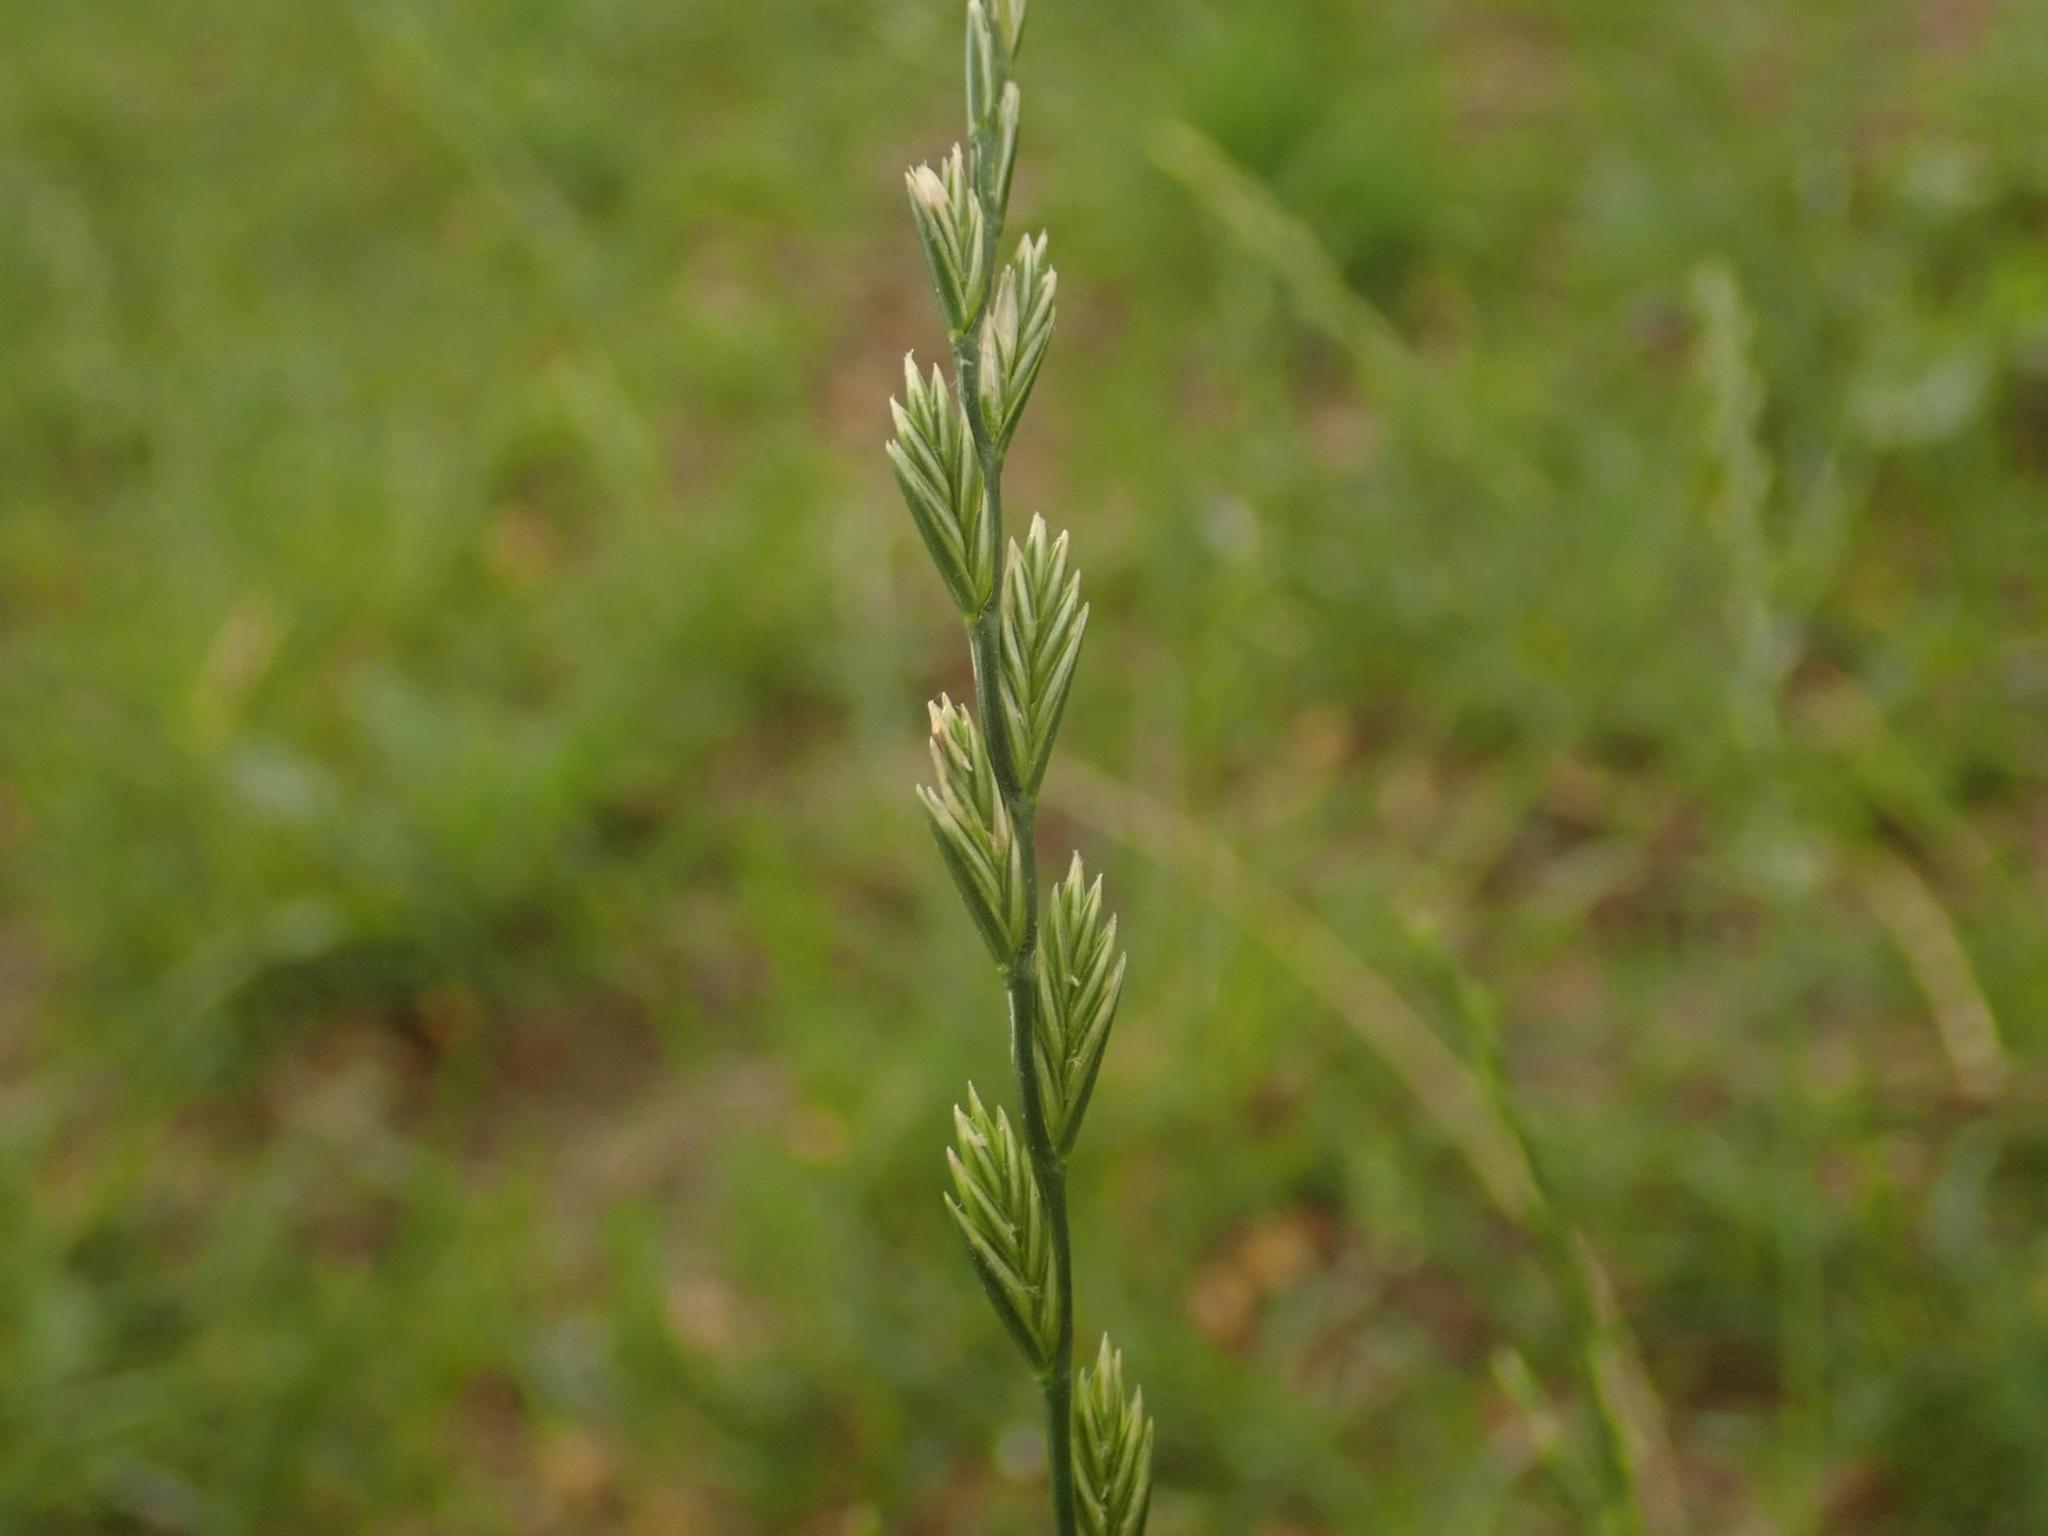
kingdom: Plantae
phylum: Tracheophyta
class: Liliopsida
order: Poales
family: Poaceae
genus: Lolium
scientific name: Lolium perenne
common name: Perennial ryegrass
